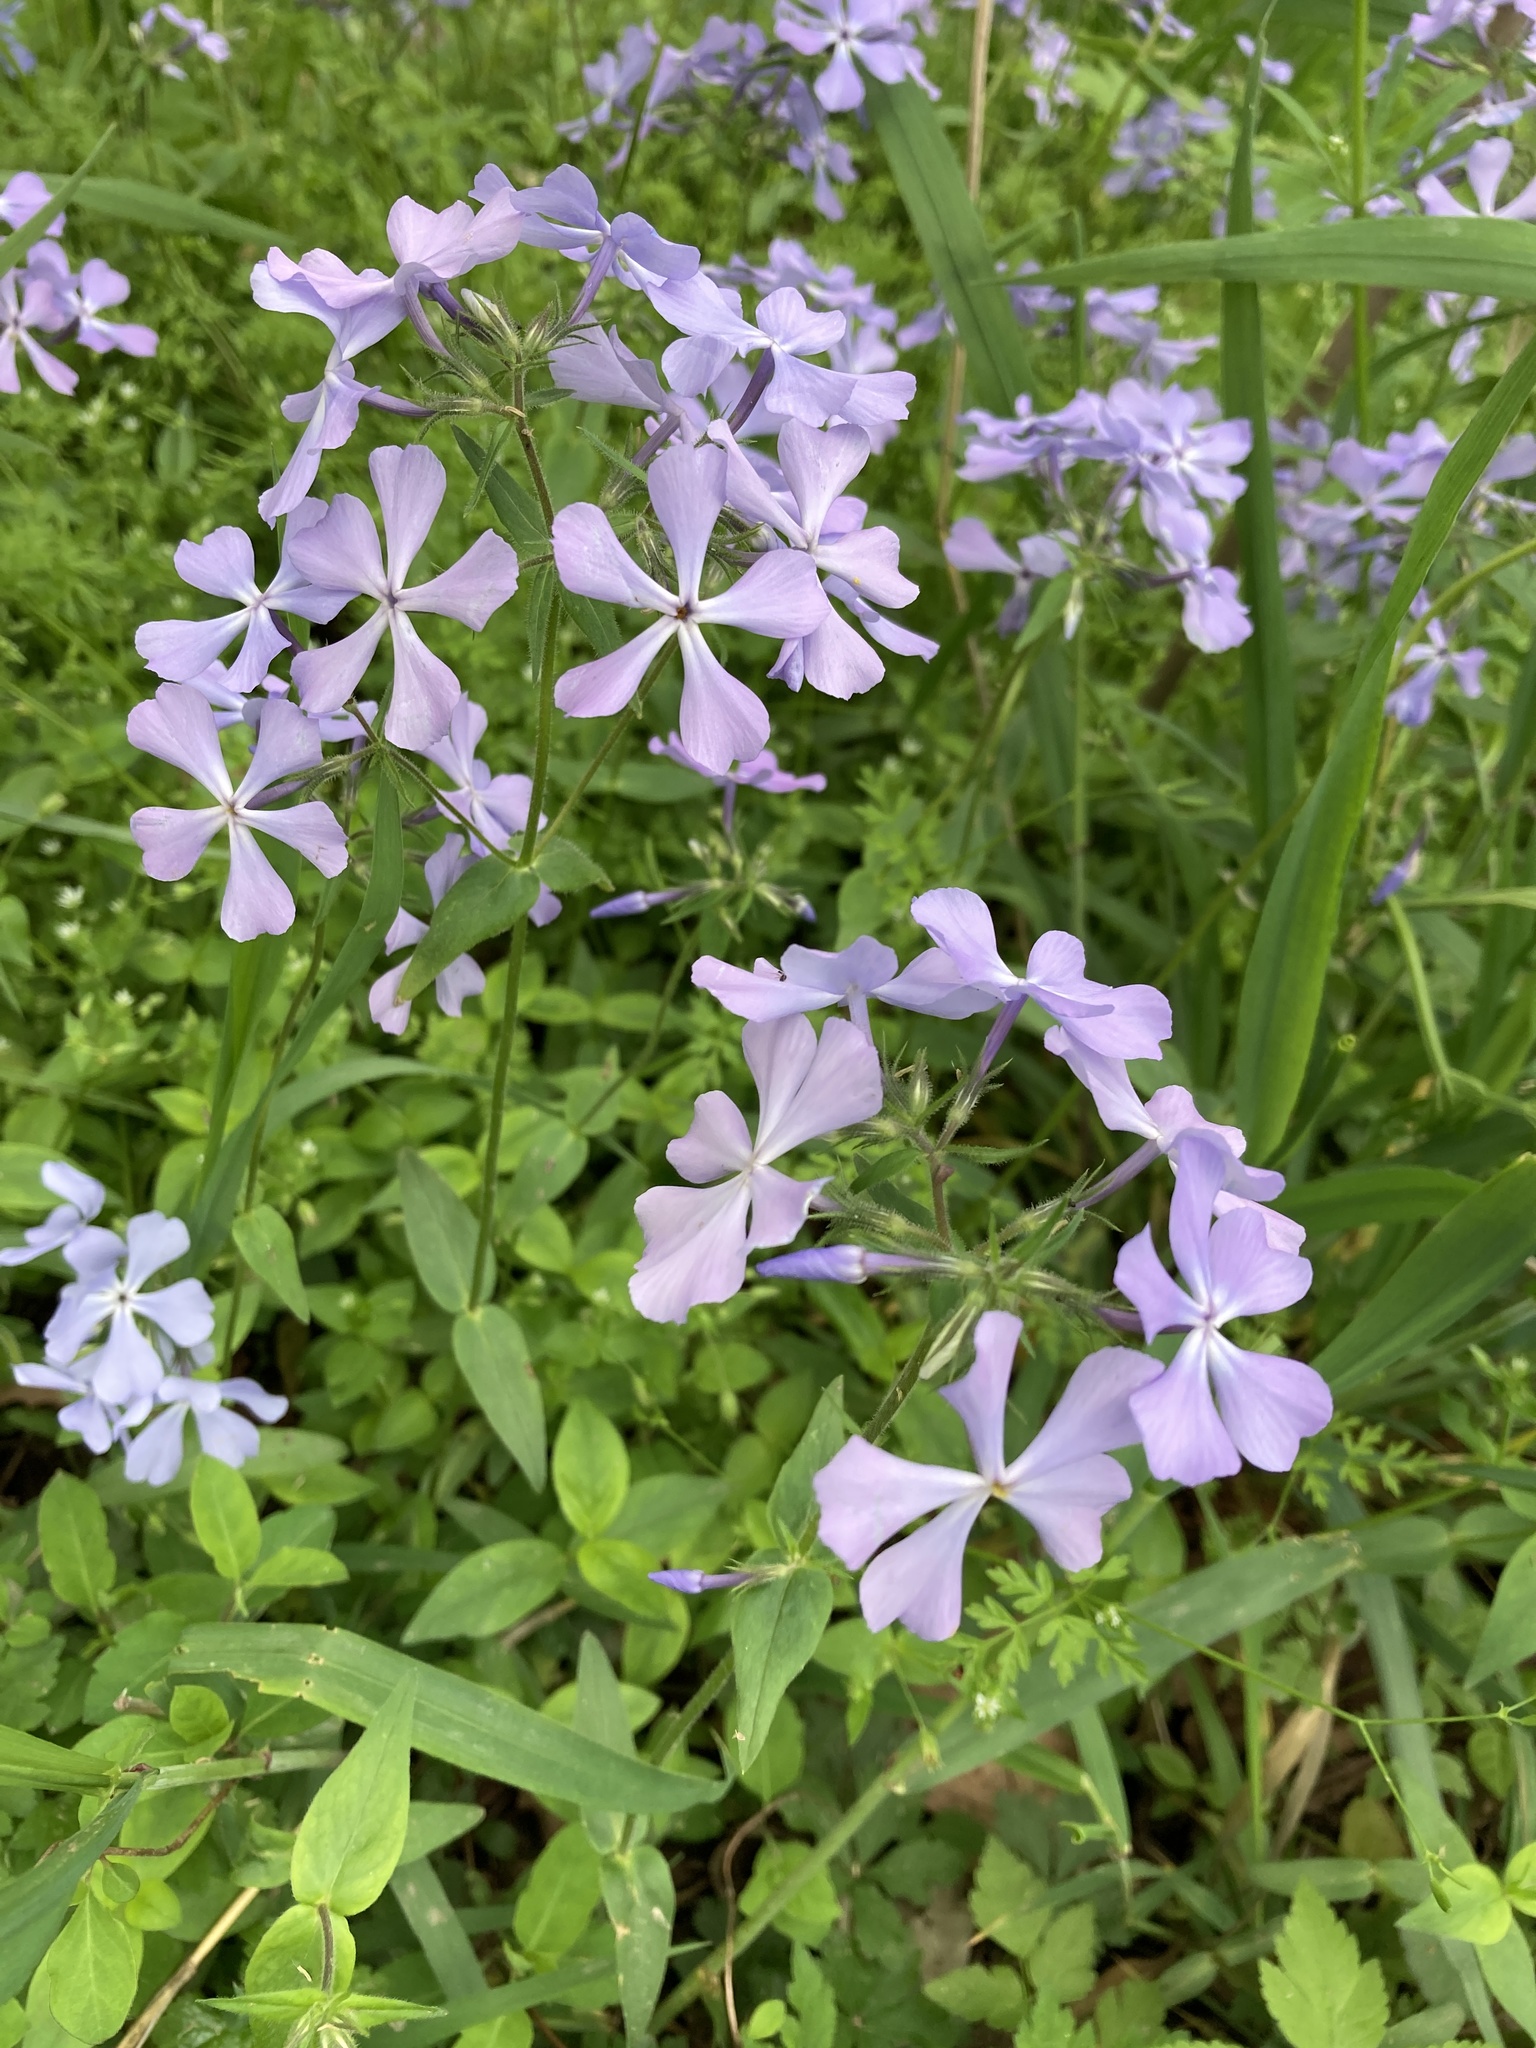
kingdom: Plantae
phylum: Tracheophyta
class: Magnoliopsida
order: Ericales
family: Polemoniaceae
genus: Phlox
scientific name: Phlox divaricata
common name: Blue phlox
